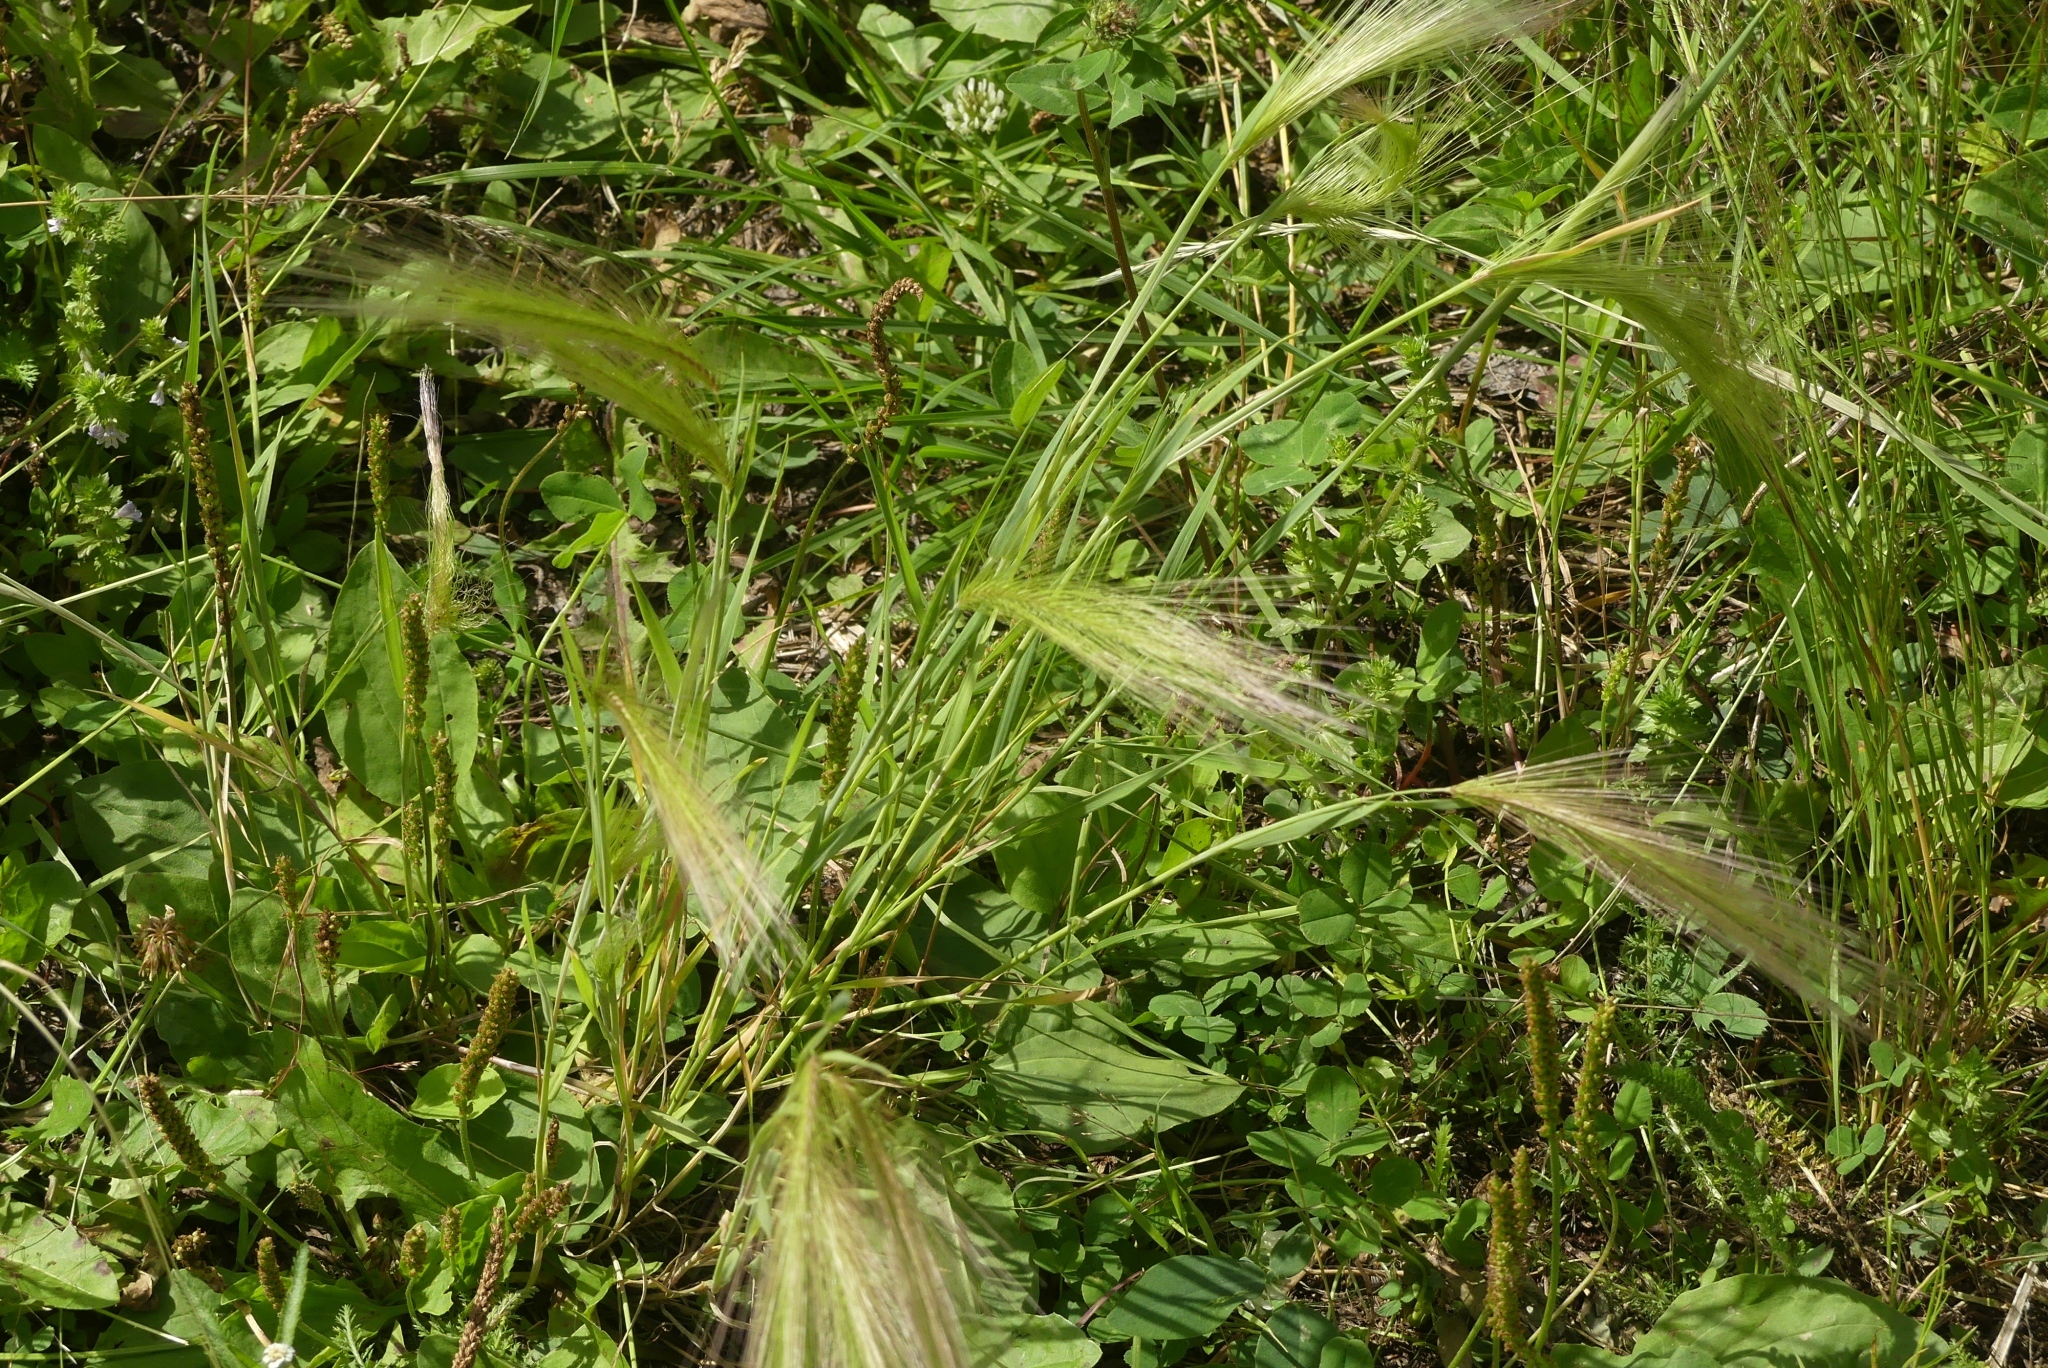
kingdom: Plantae
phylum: Tracheophyta
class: Liliopsida
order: Poales
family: Poaceae
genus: Hordeum
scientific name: Hordeum jubatum
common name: Foxtail barley
